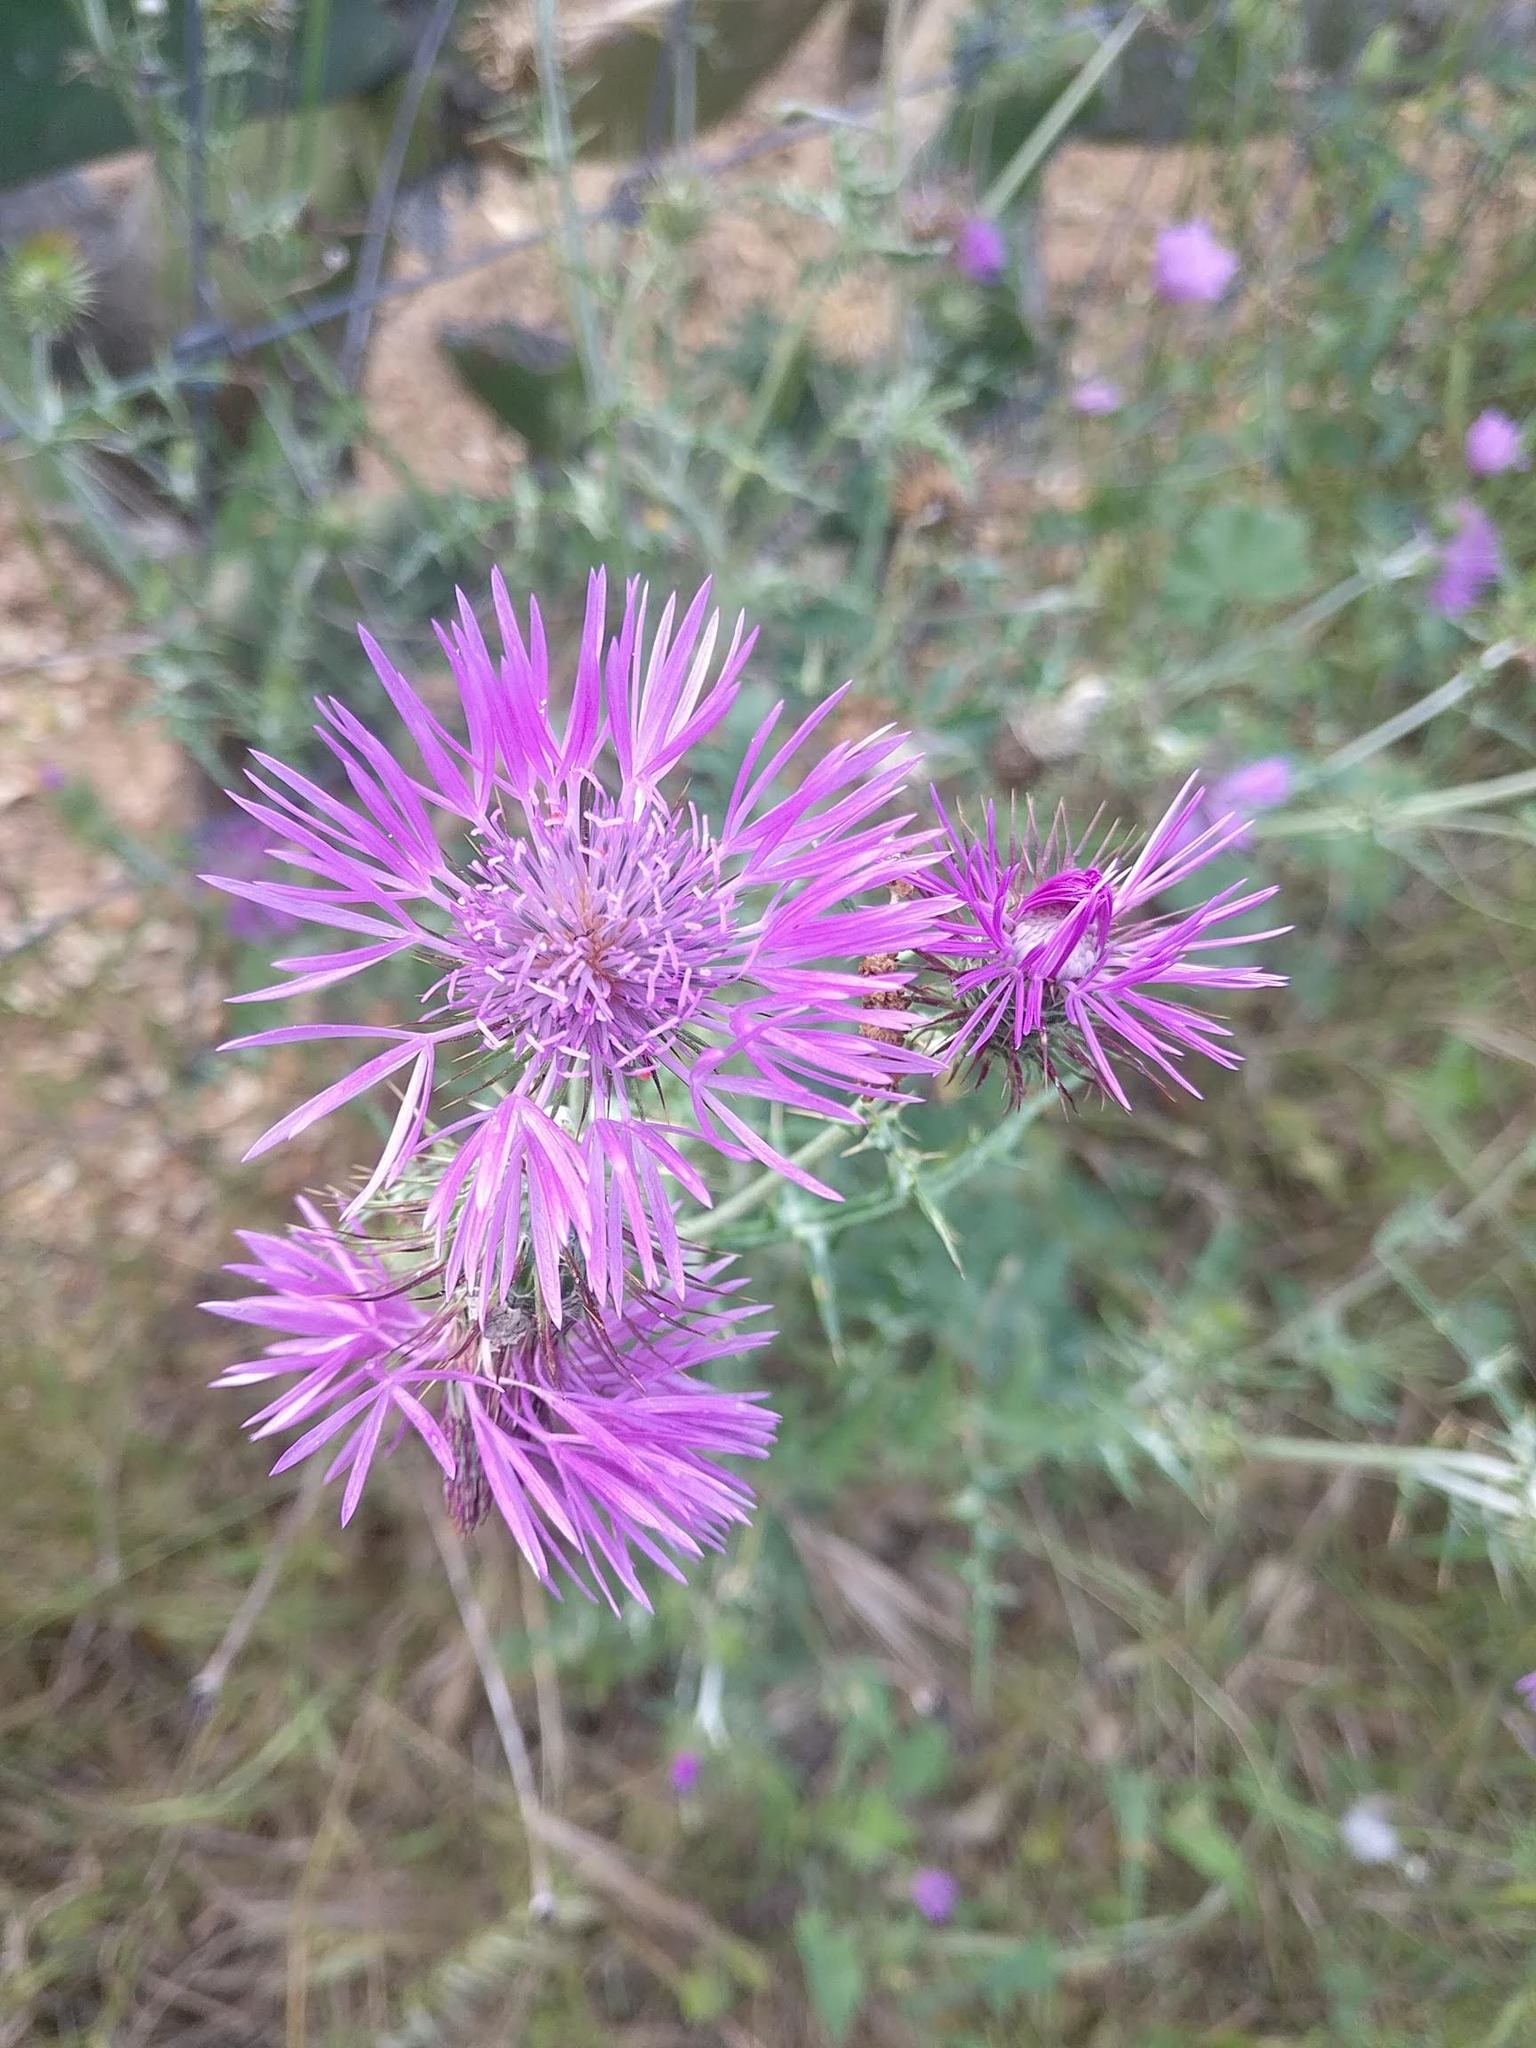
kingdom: Plantae
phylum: Tracheophyta
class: Magnoliopsida
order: Asterales
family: Asteraceae
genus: Galactites
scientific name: Galactites tomentosa
